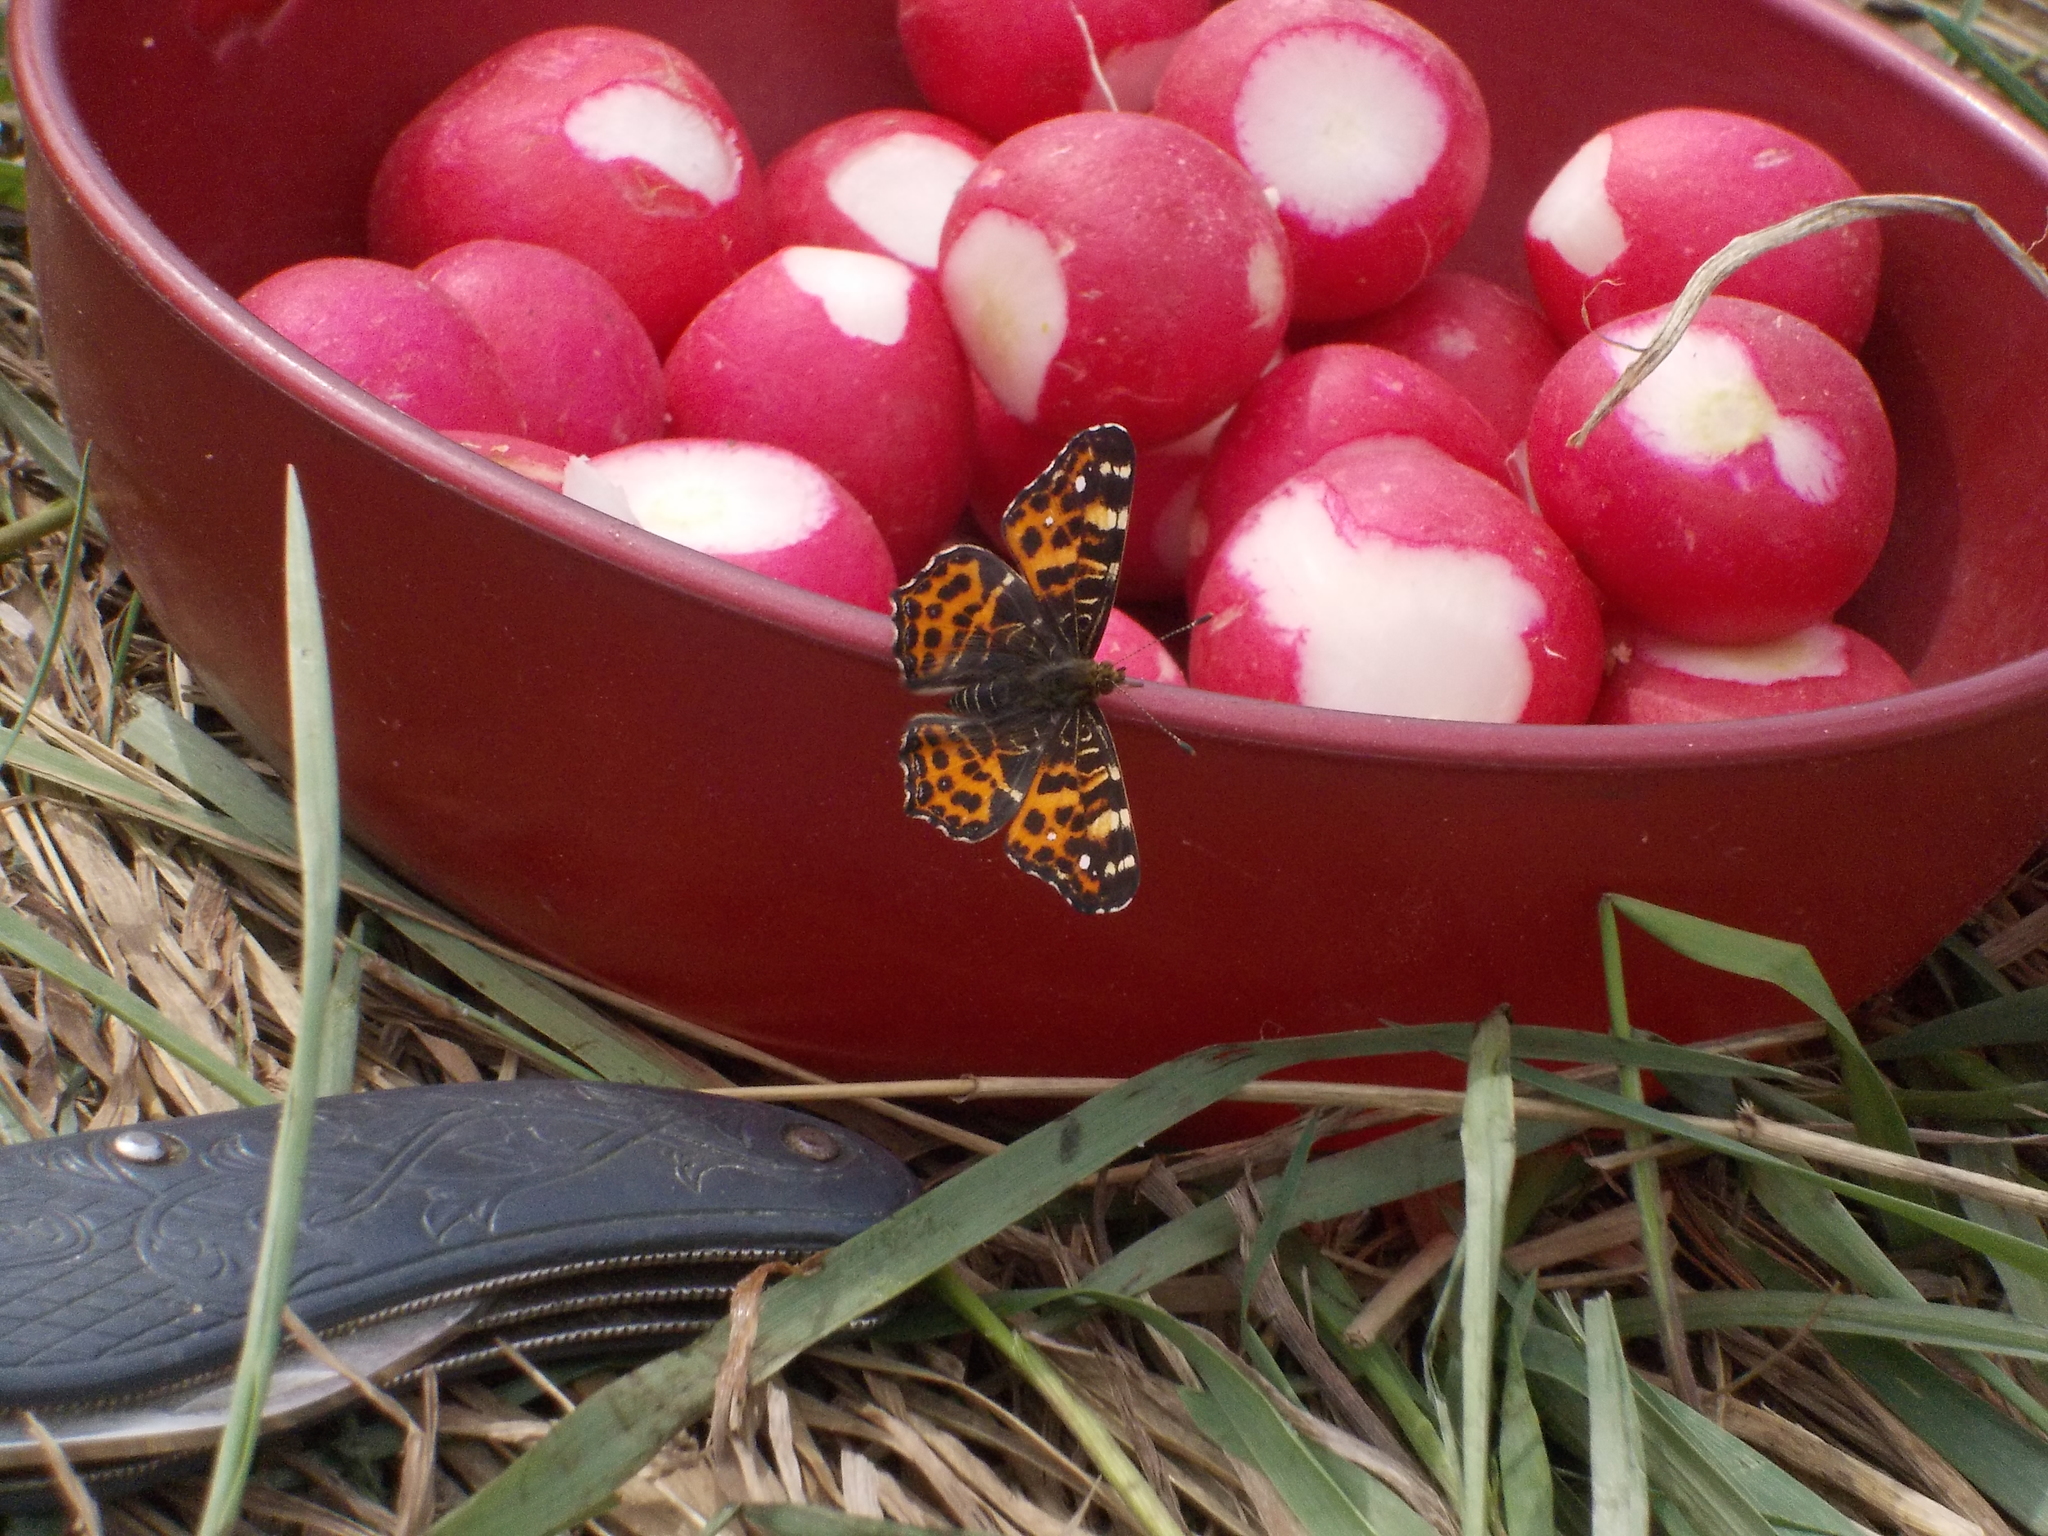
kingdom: Animalia
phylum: Arthropoda
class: Insecta
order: Lepidoptera
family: Nymphalidae
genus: Araschnia
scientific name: Araschnia levana
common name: Map butterfly
